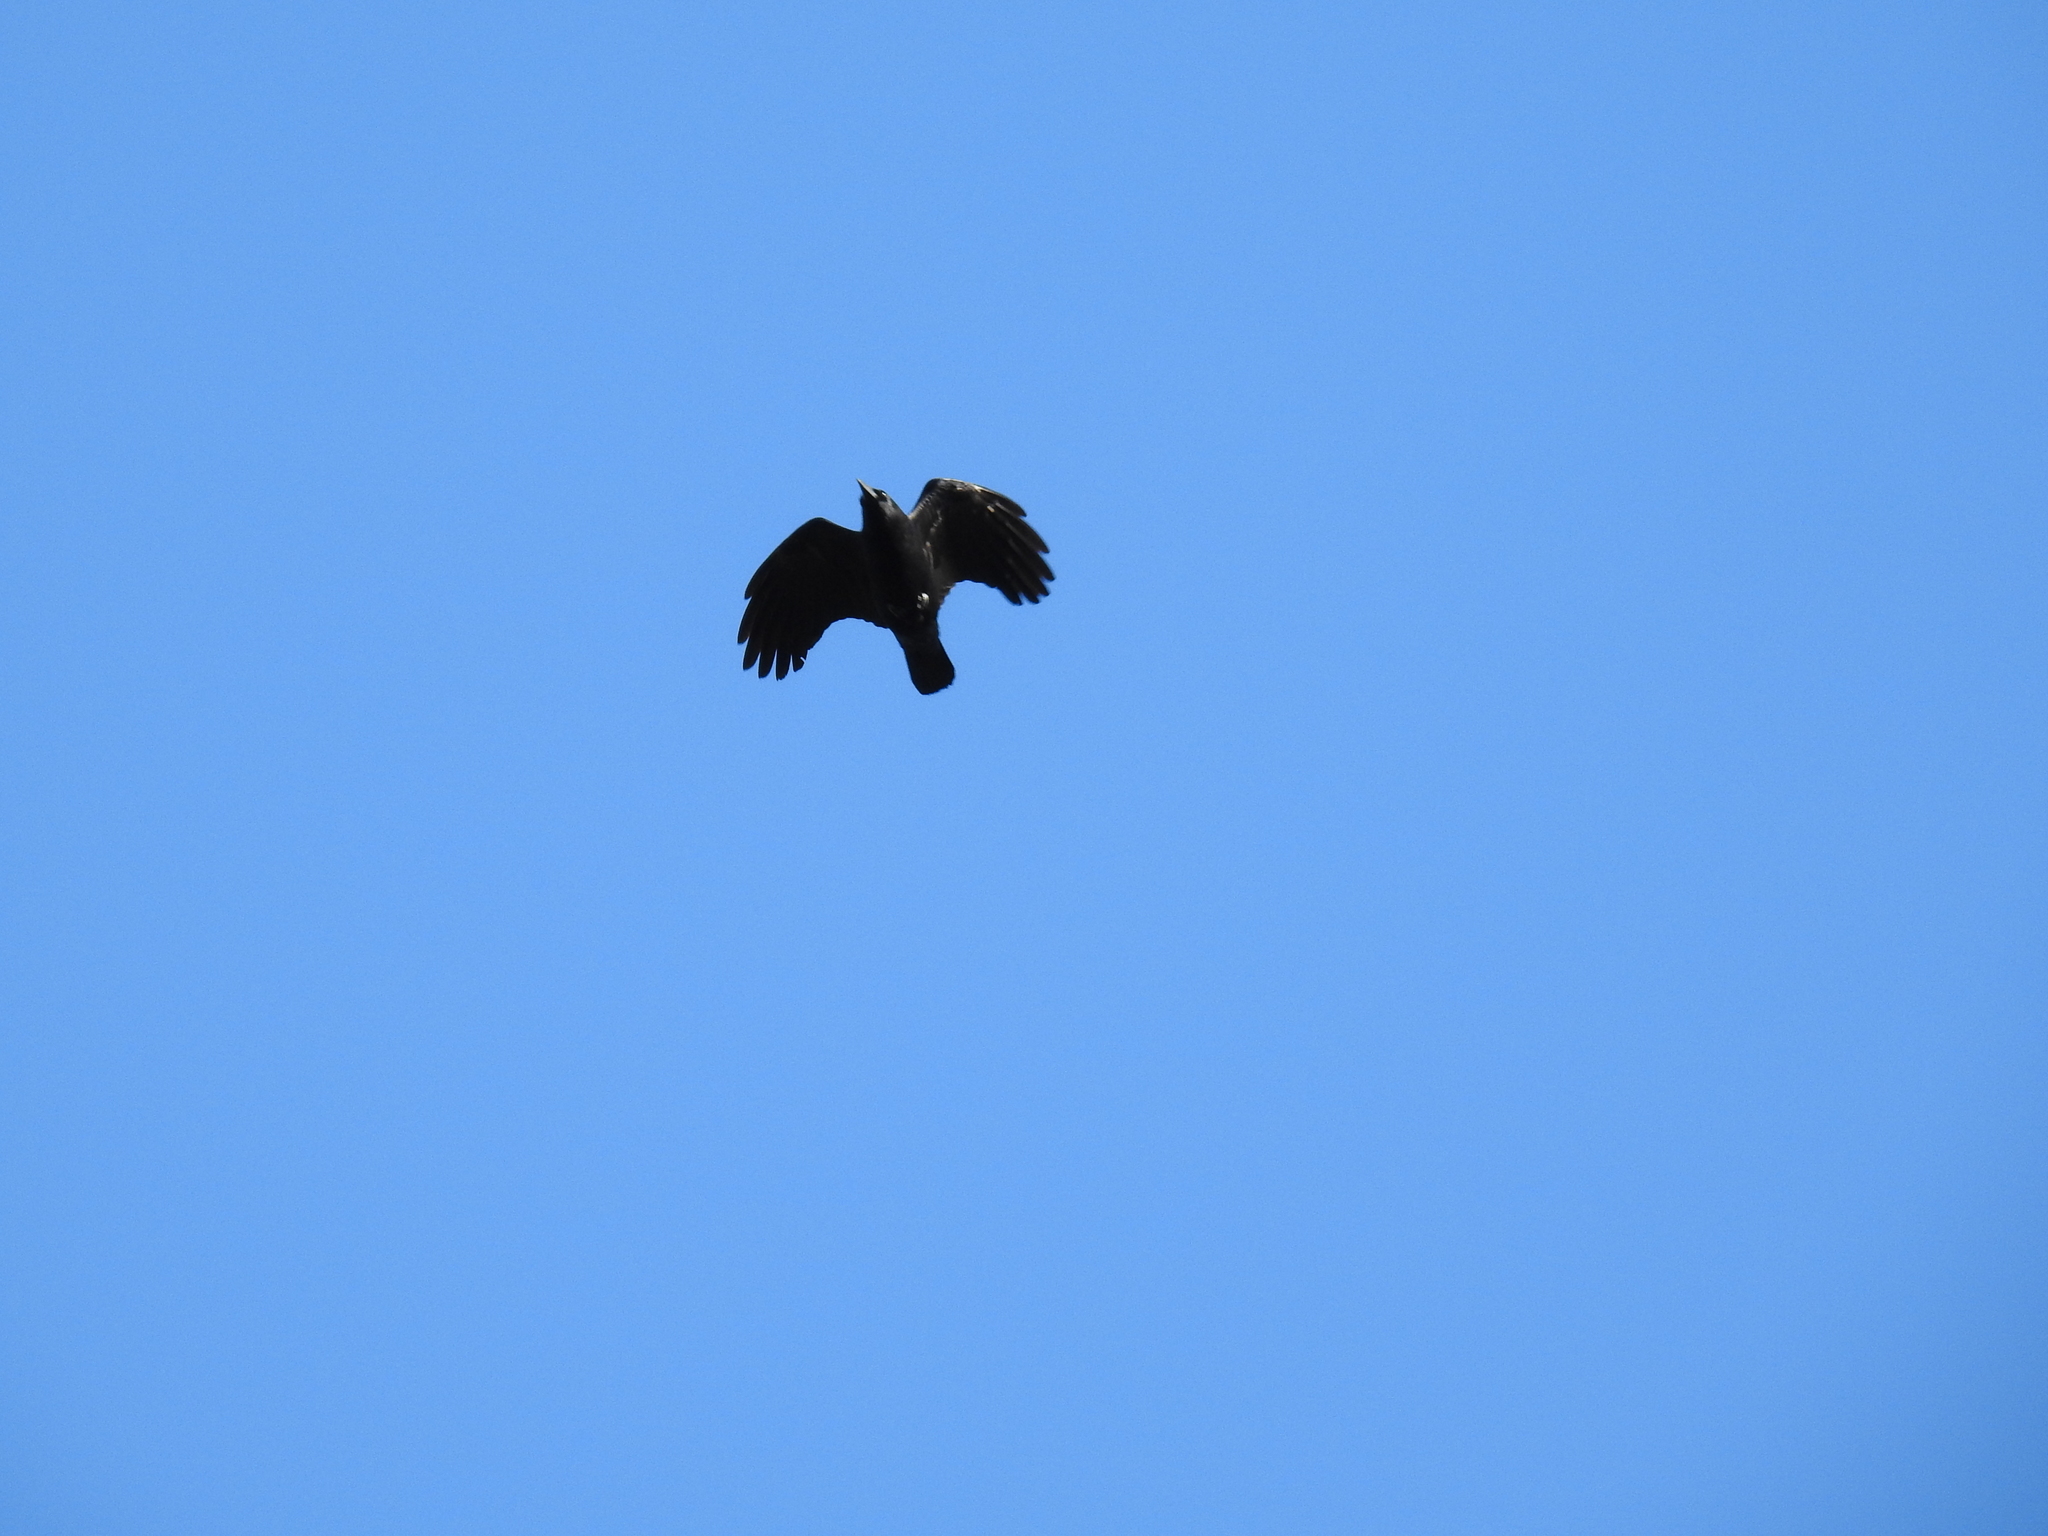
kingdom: Animalia
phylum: Chordata
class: Aves
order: Passeriformes
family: Corvidae
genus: Corvus
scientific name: Corvus brachyrhynchos
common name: American crow
